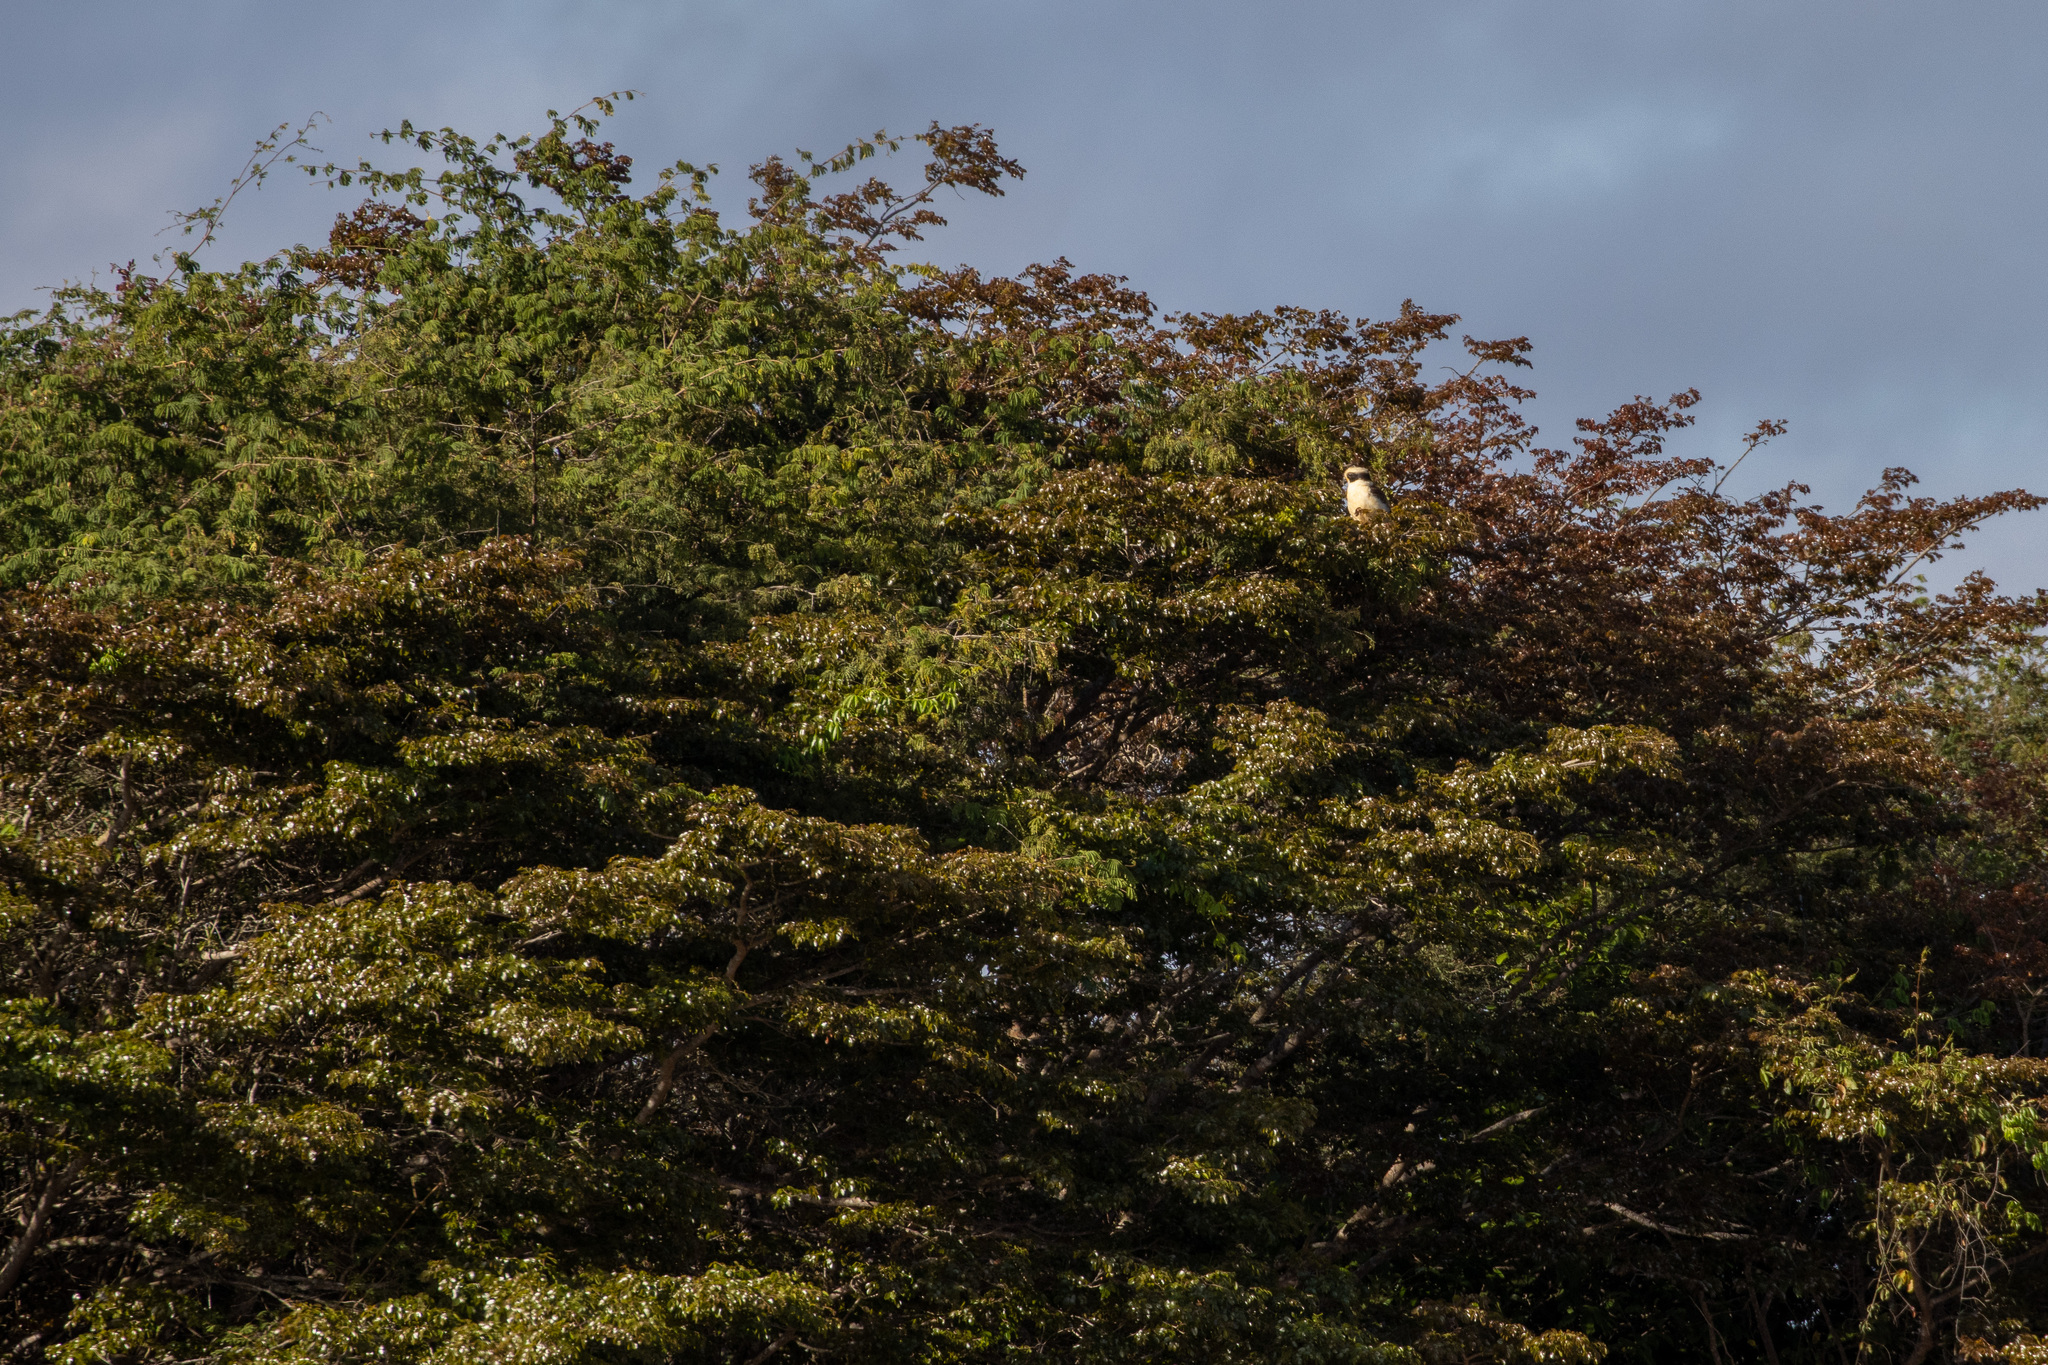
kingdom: Animalia
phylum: Chordata
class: Aves
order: Falconiformes
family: Falconidae
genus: Herpetotheres
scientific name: Herpetotheres cachinnans
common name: Laughing falcon
